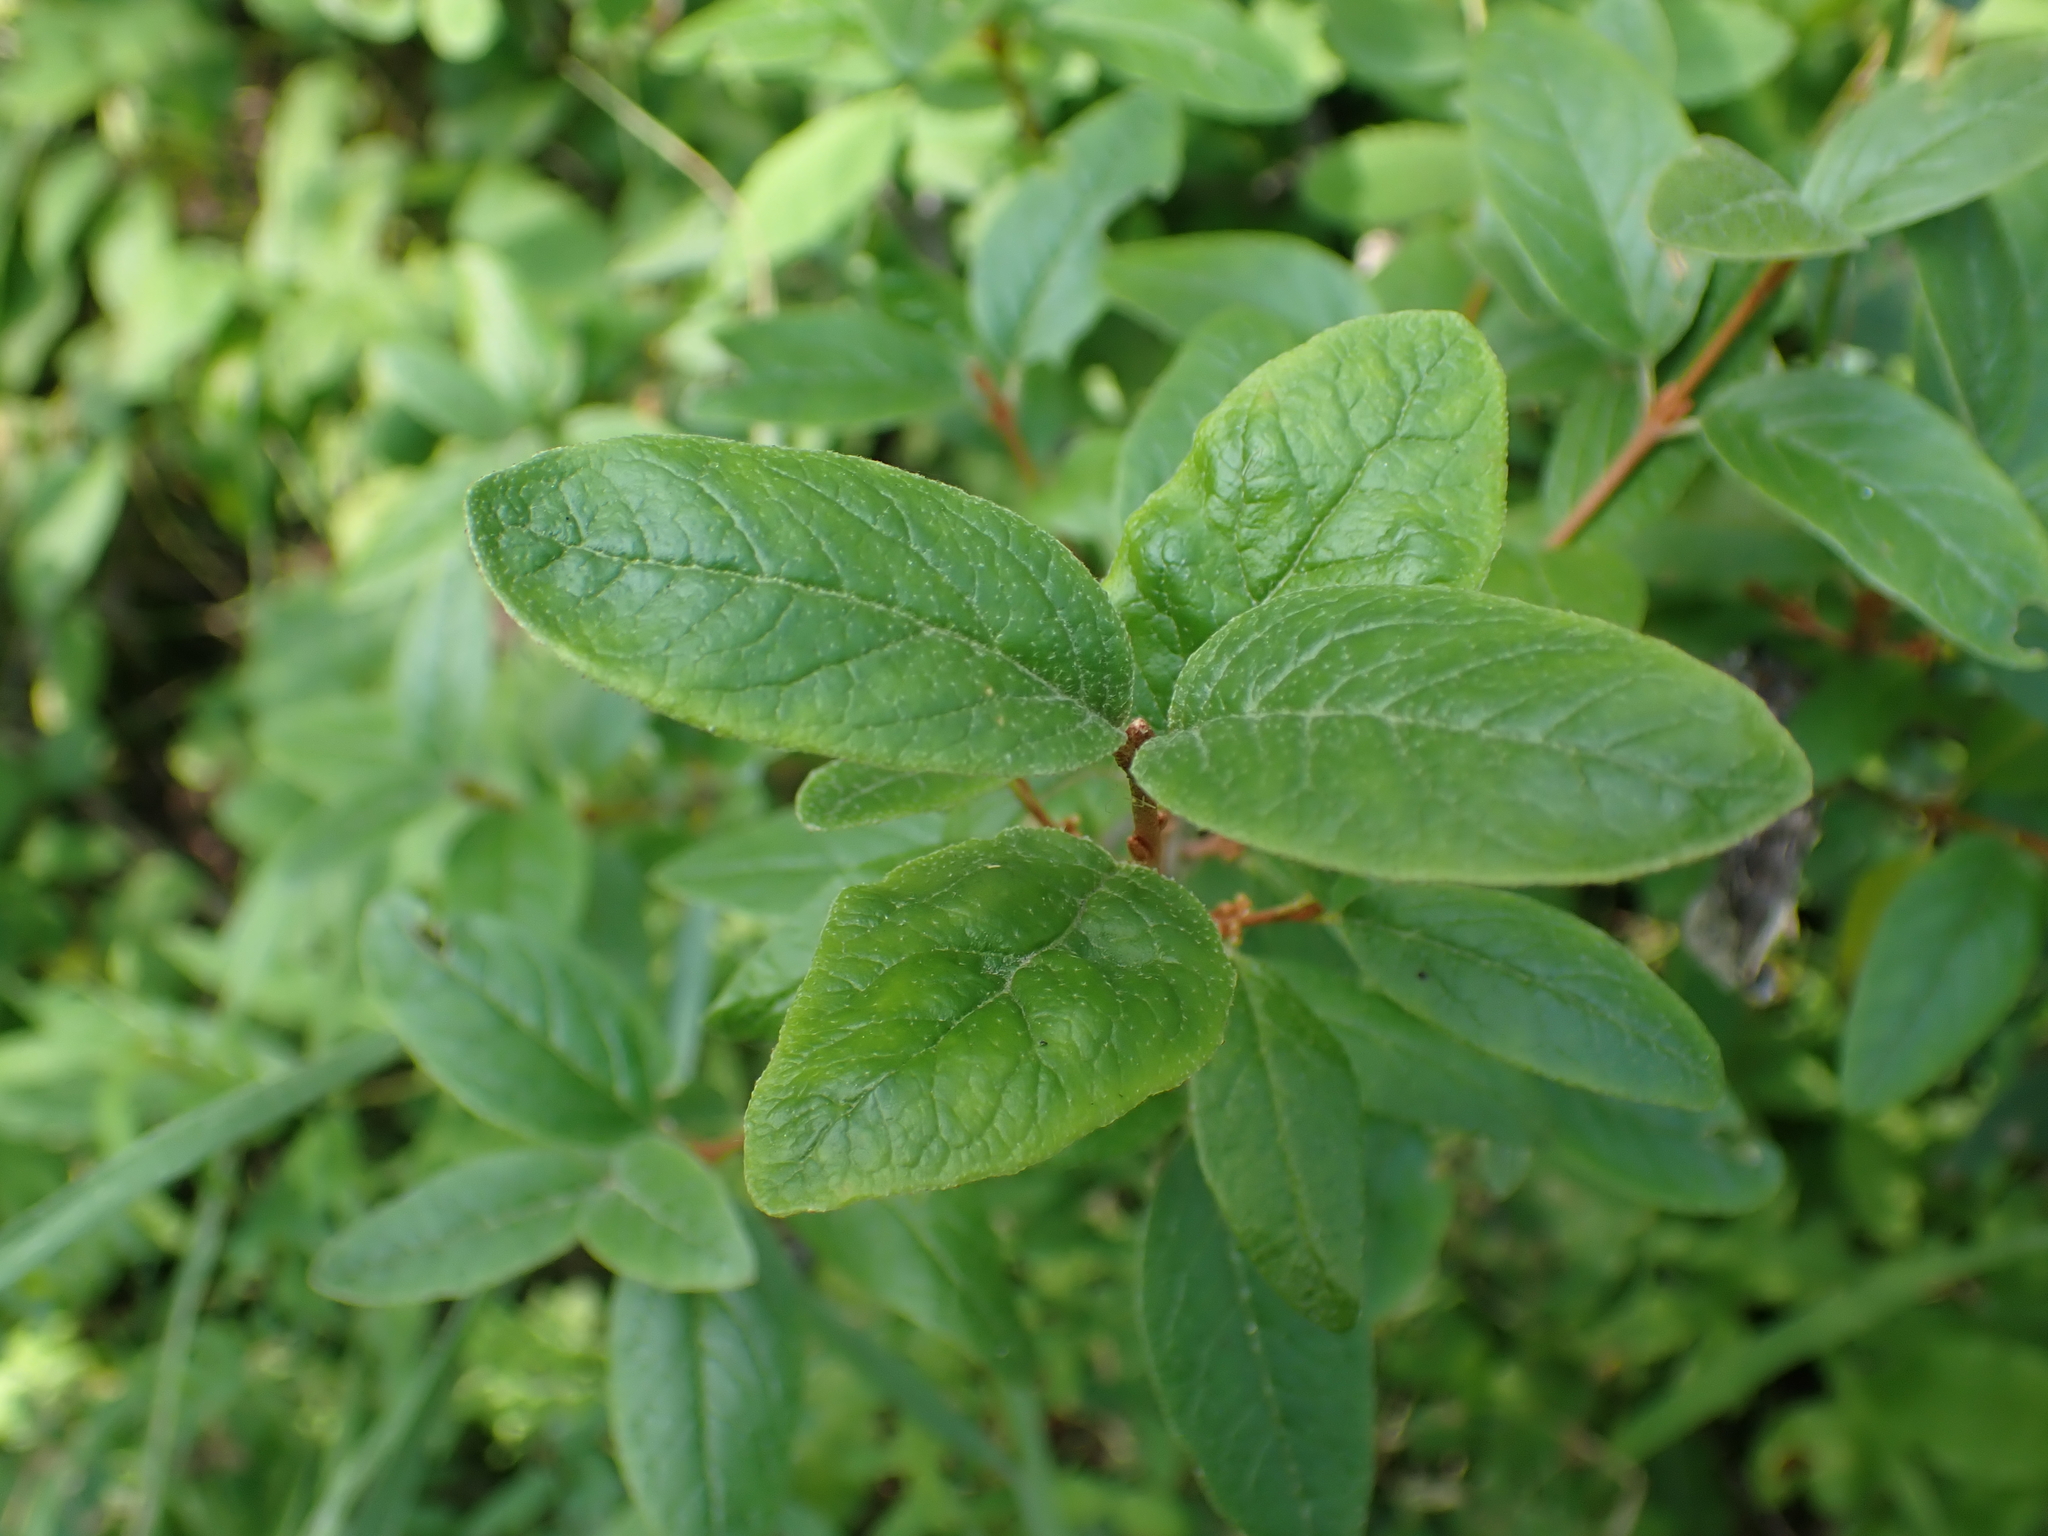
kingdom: Plantae
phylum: Tracheophyta
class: Magnoliopsida
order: Rosales
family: Elaeagnaceae
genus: Shepherdia
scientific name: Shepherdia canadensis
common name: Soapberry
